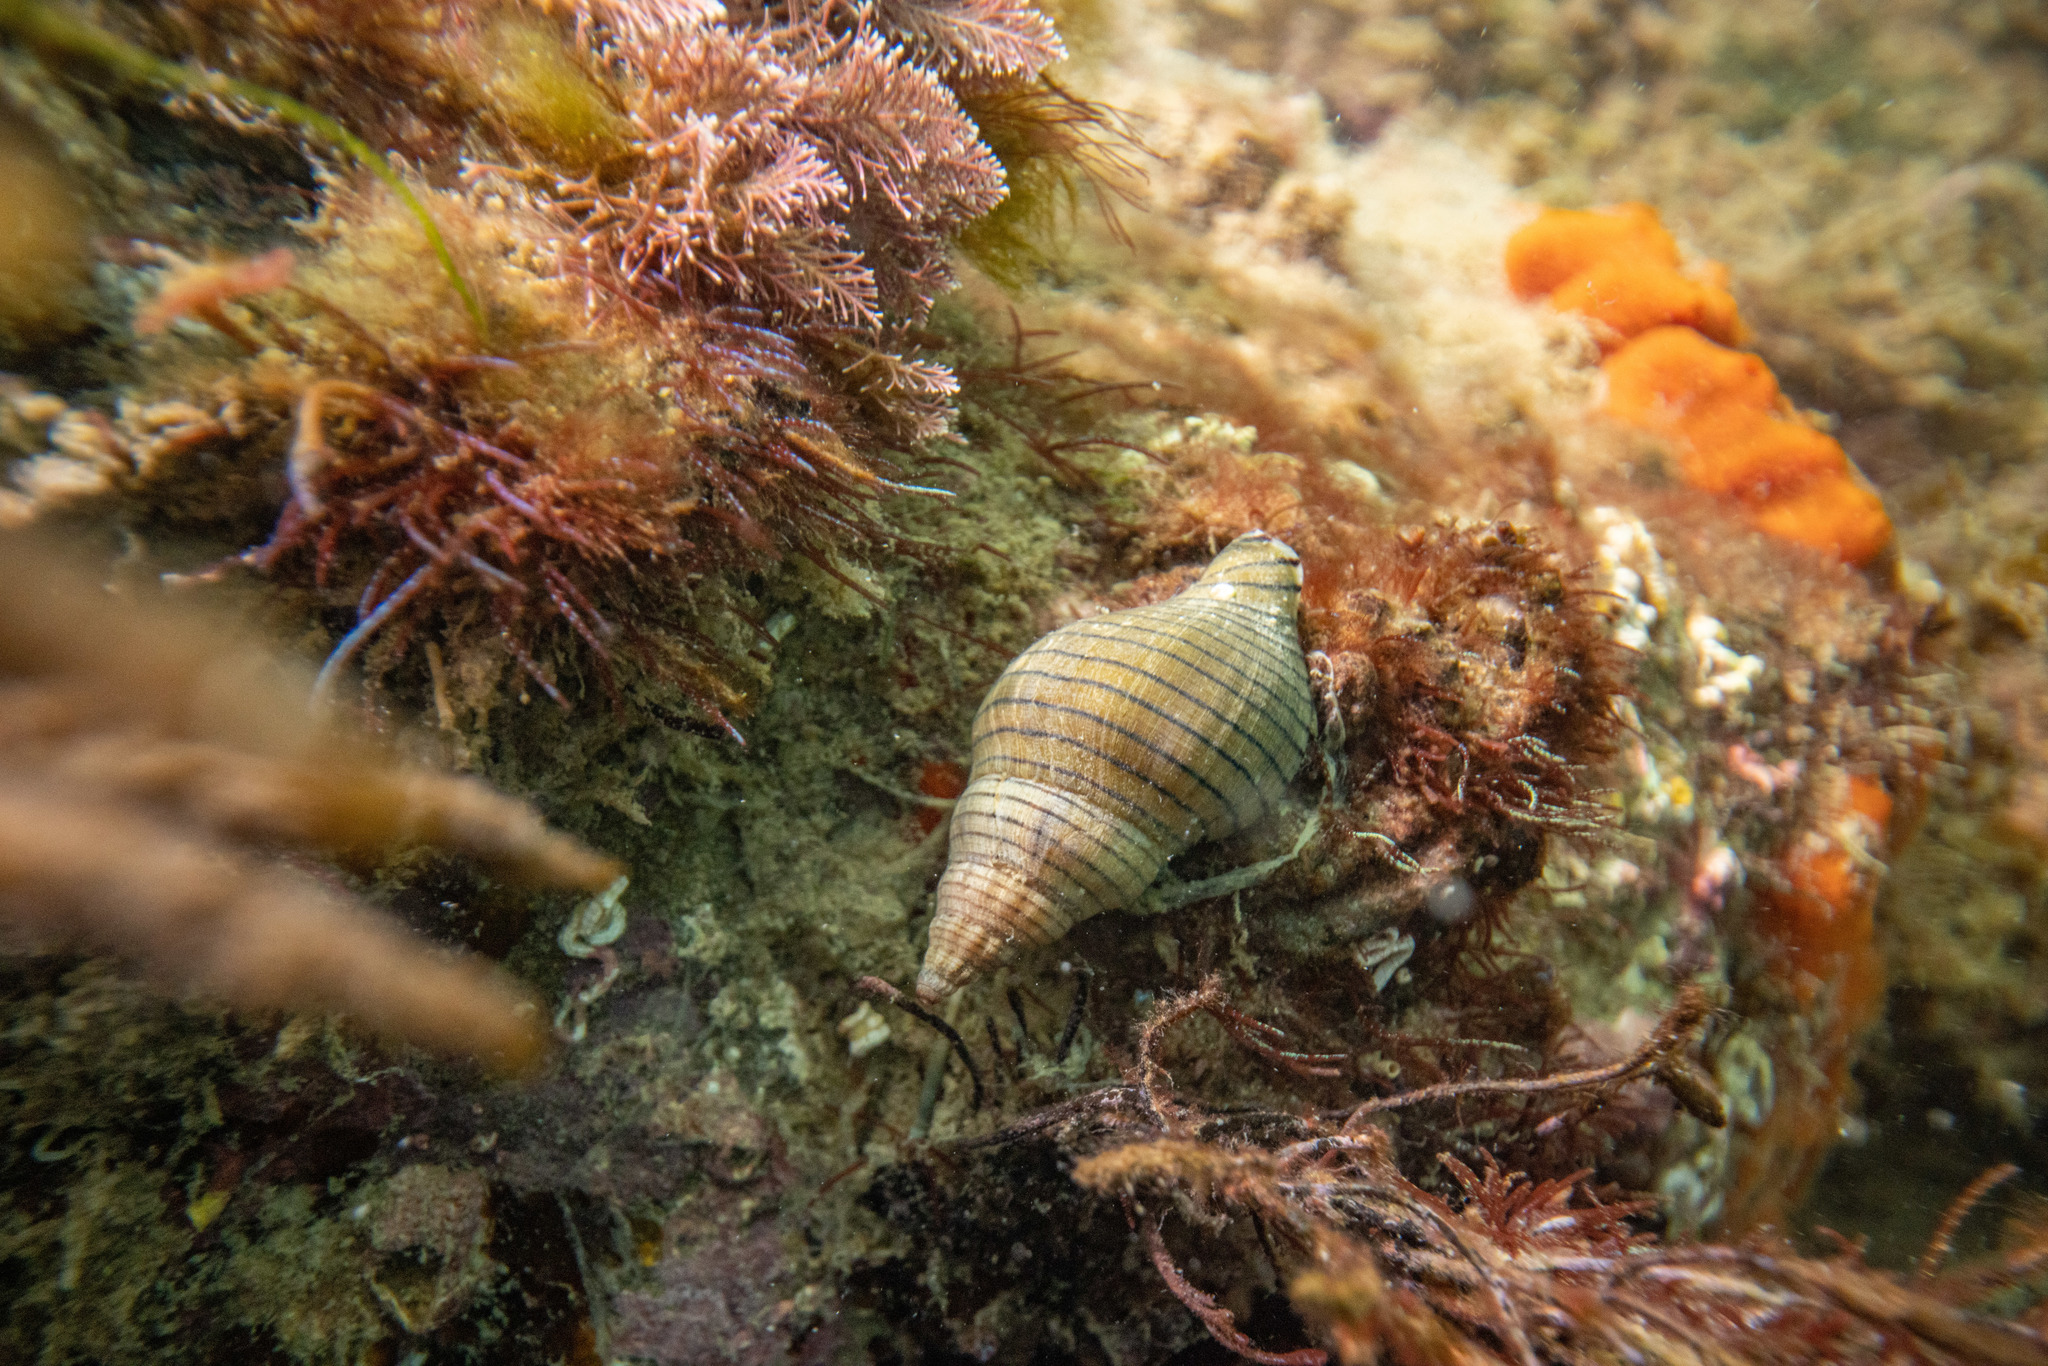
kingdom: Animalia
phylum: Mollusca
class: Gastropoda
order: Neogastropoda
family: Tudiclidae
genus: Buccinulum
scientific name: Buccinulum linea
